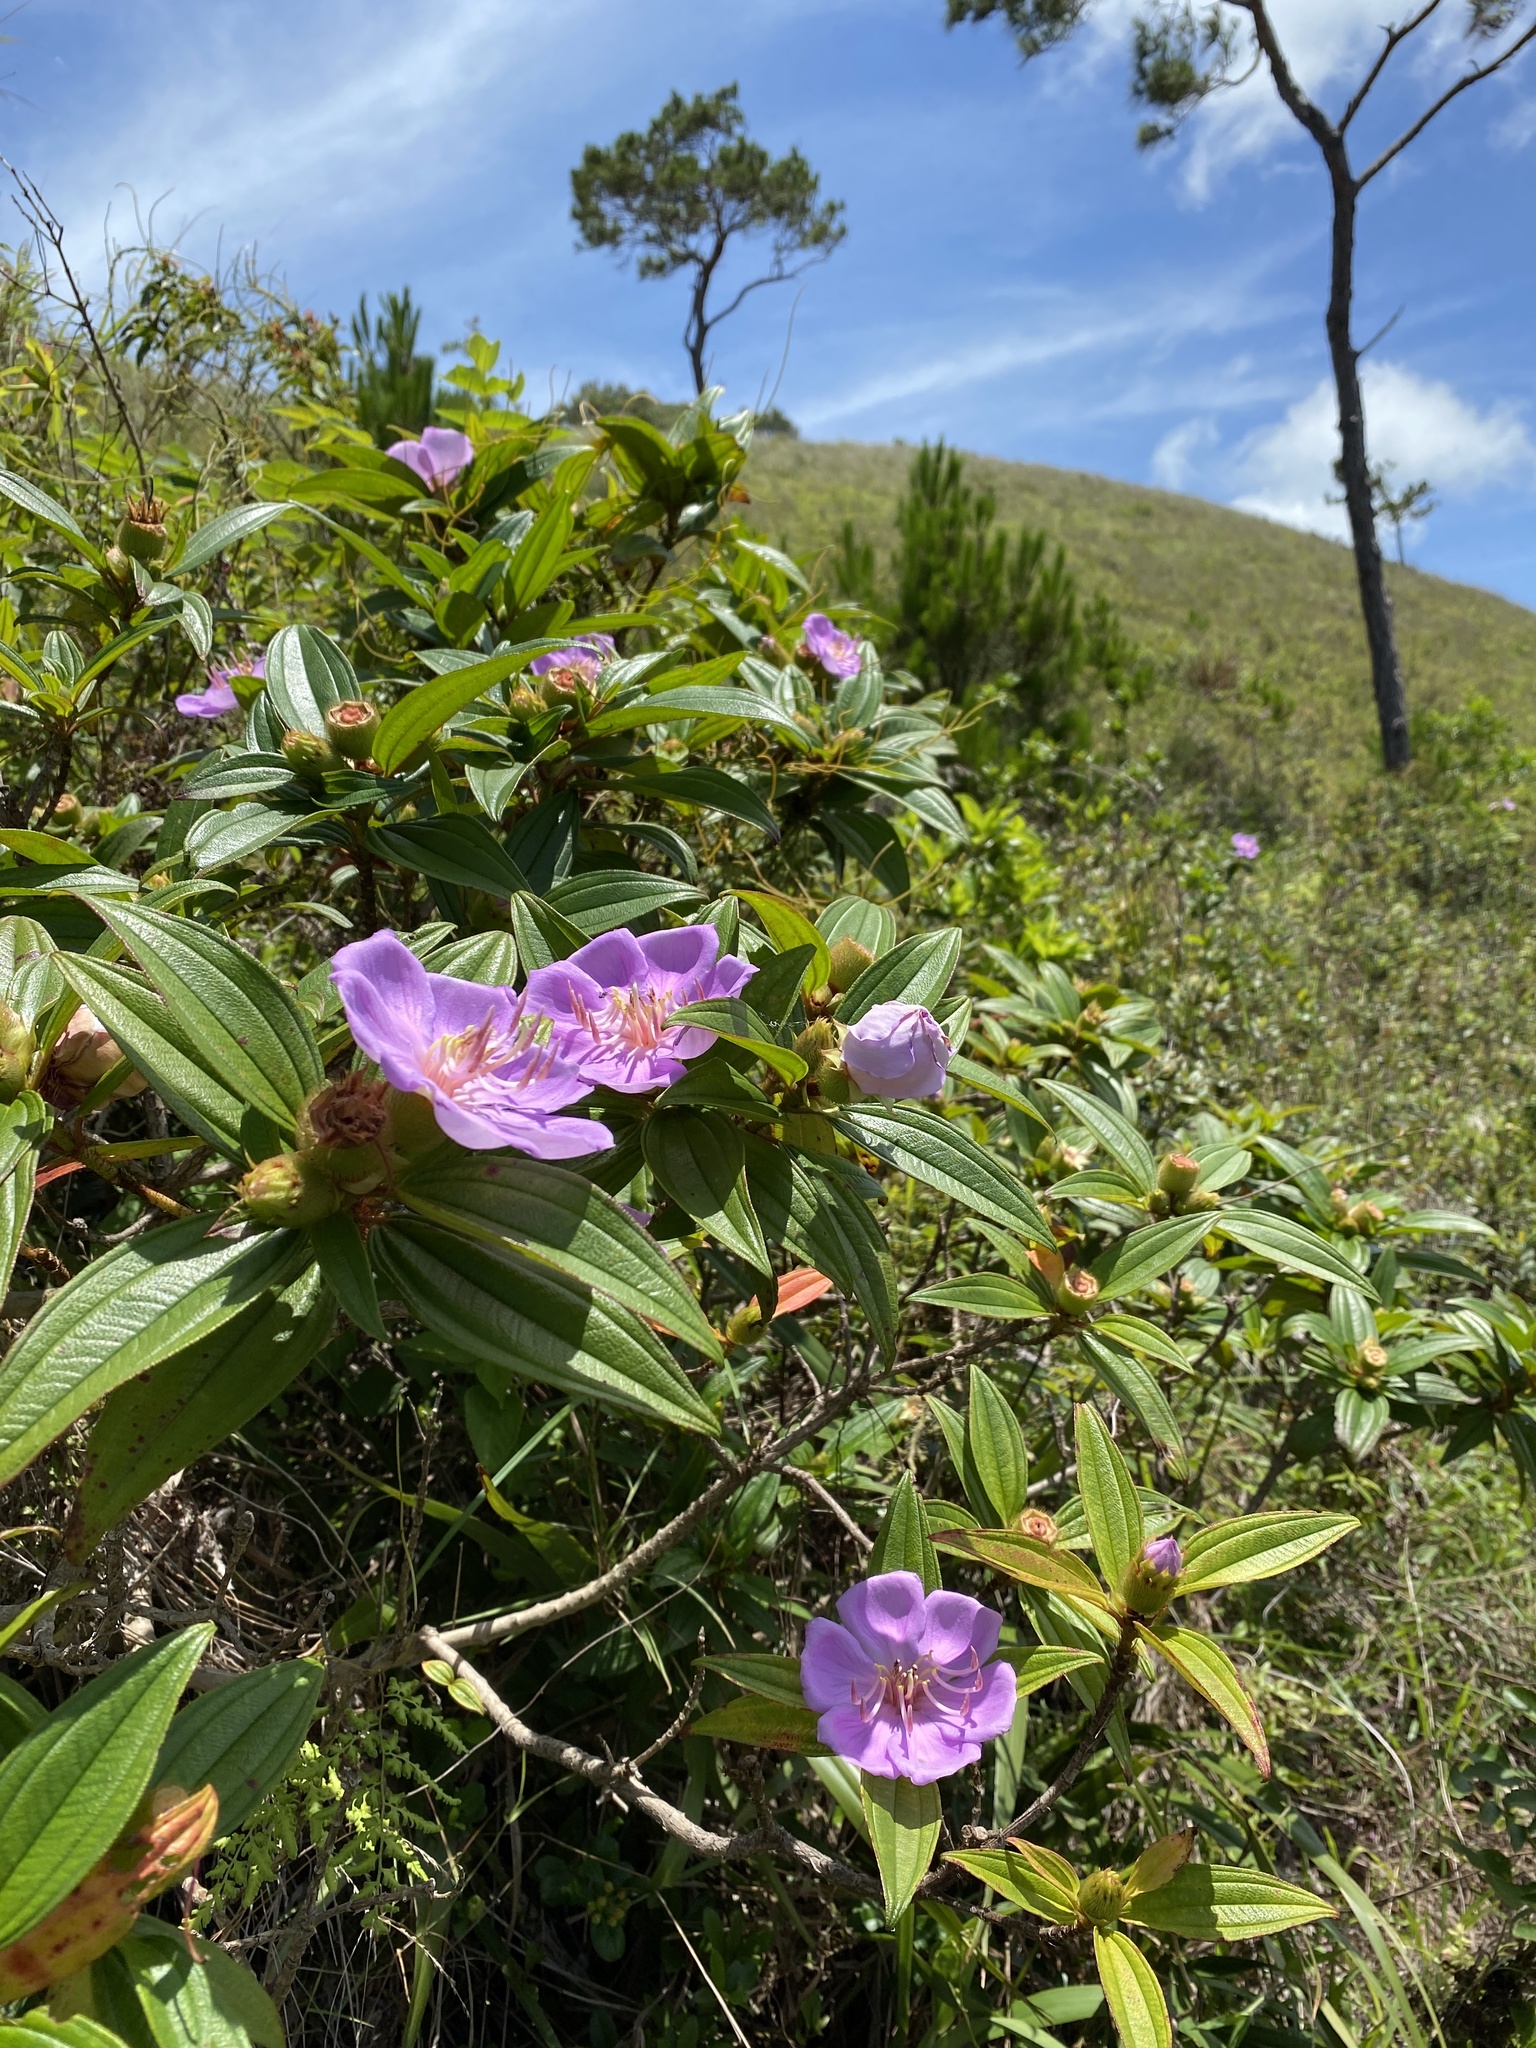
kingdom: Plantae
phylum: Tracheophyta
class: Magnoliopsida
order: Myrtales
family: Melastomataceae
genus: Melastoma
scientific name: Melastoma sanguineum
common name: Red melastome
